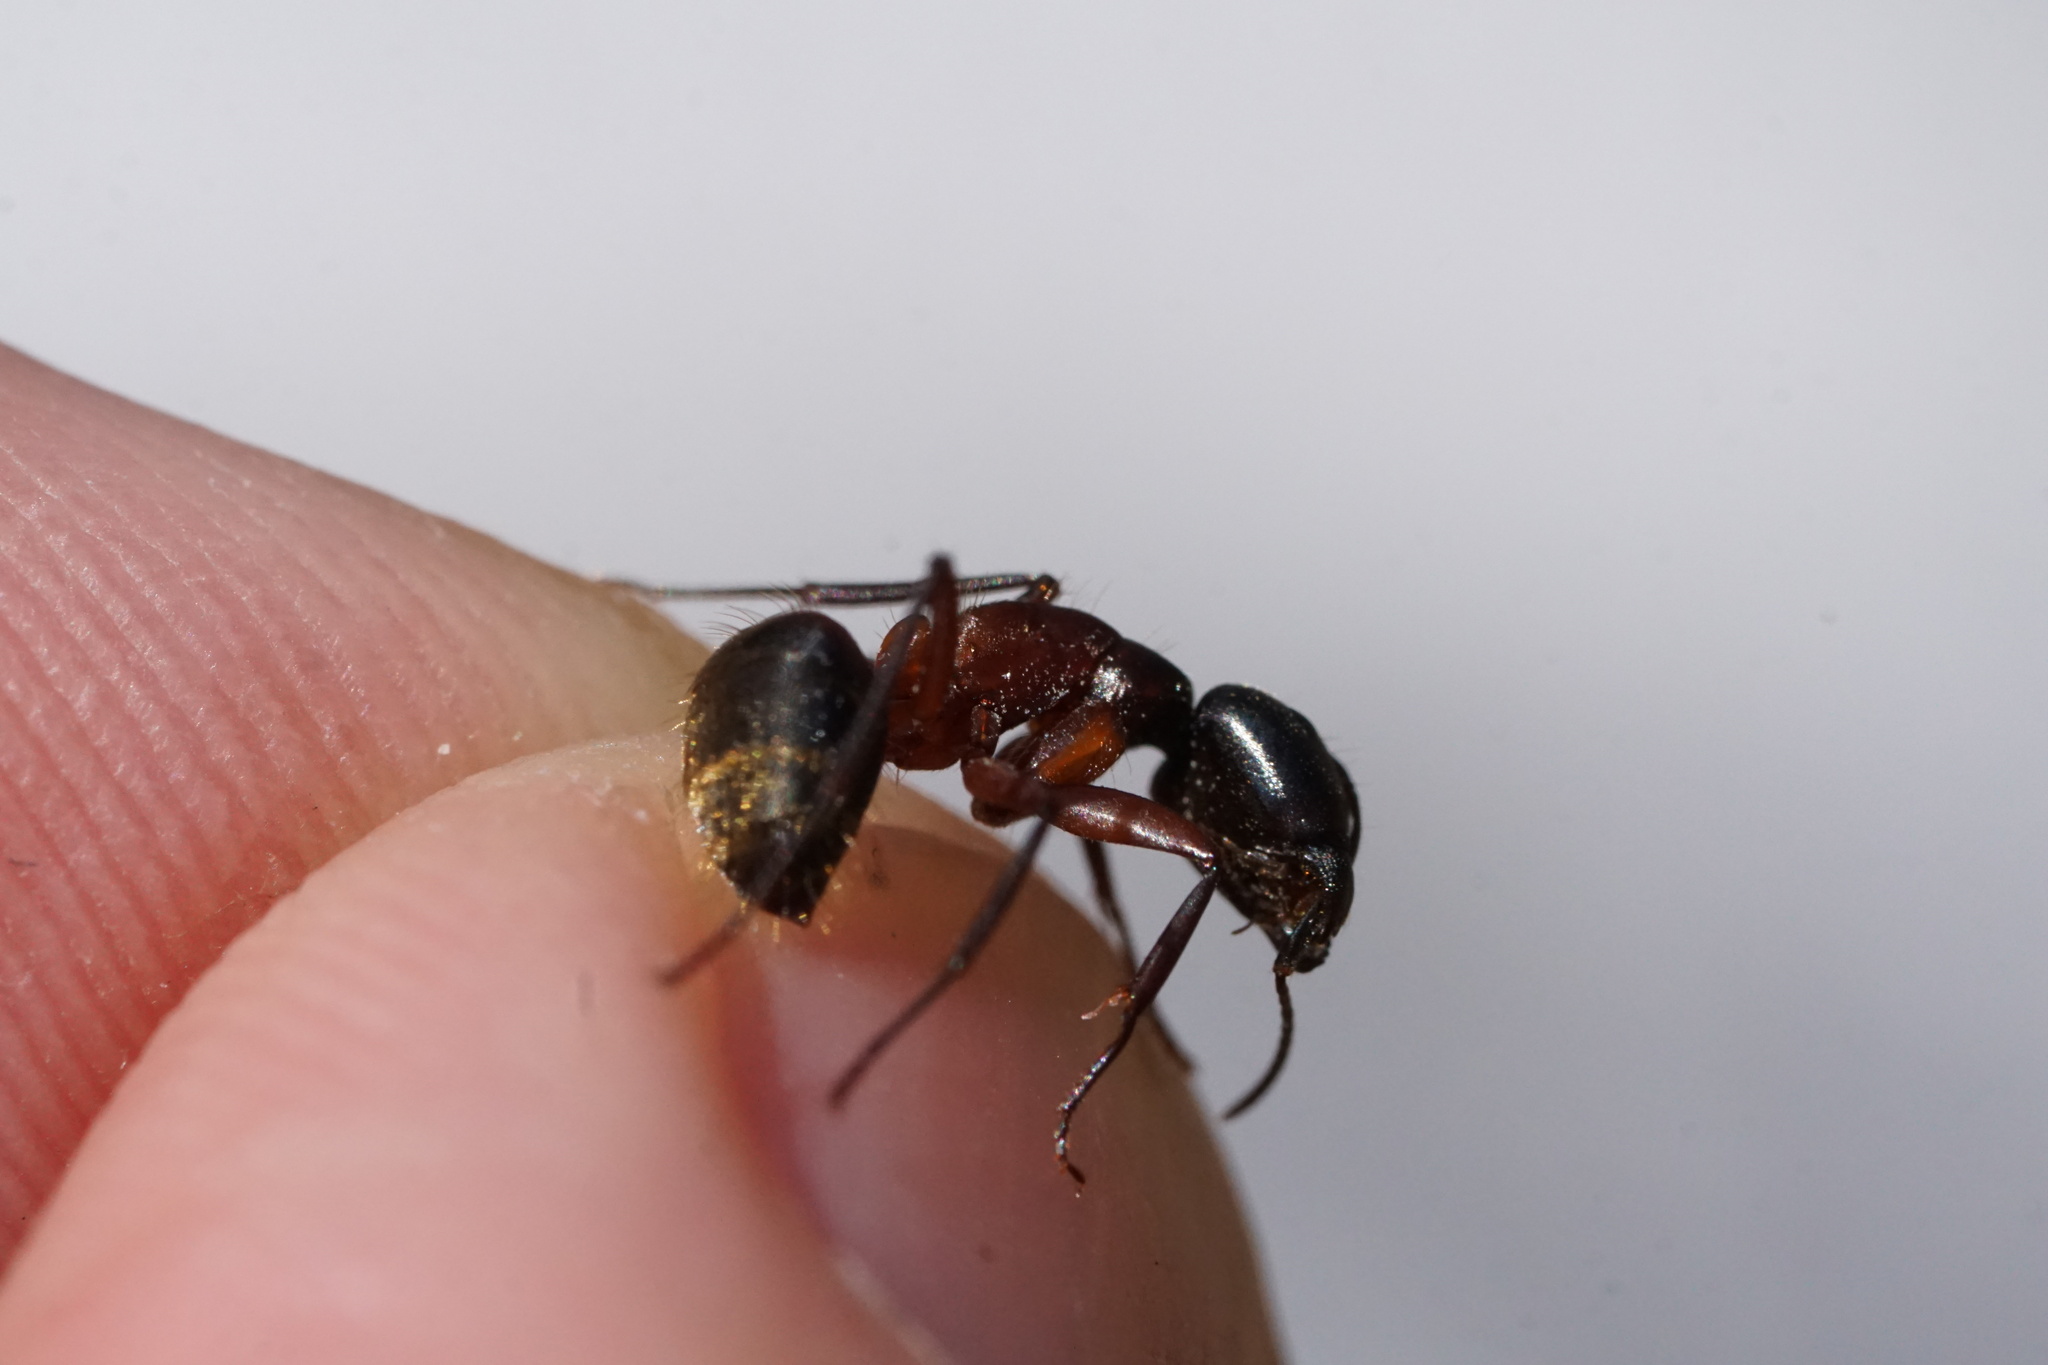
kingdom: Animalia
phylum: Arthropoda
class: Insecta
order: Hymenoptera
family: Formicidae
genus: Camponotus
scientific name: Camponotus chromaiodes
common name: Red carpenter ant
